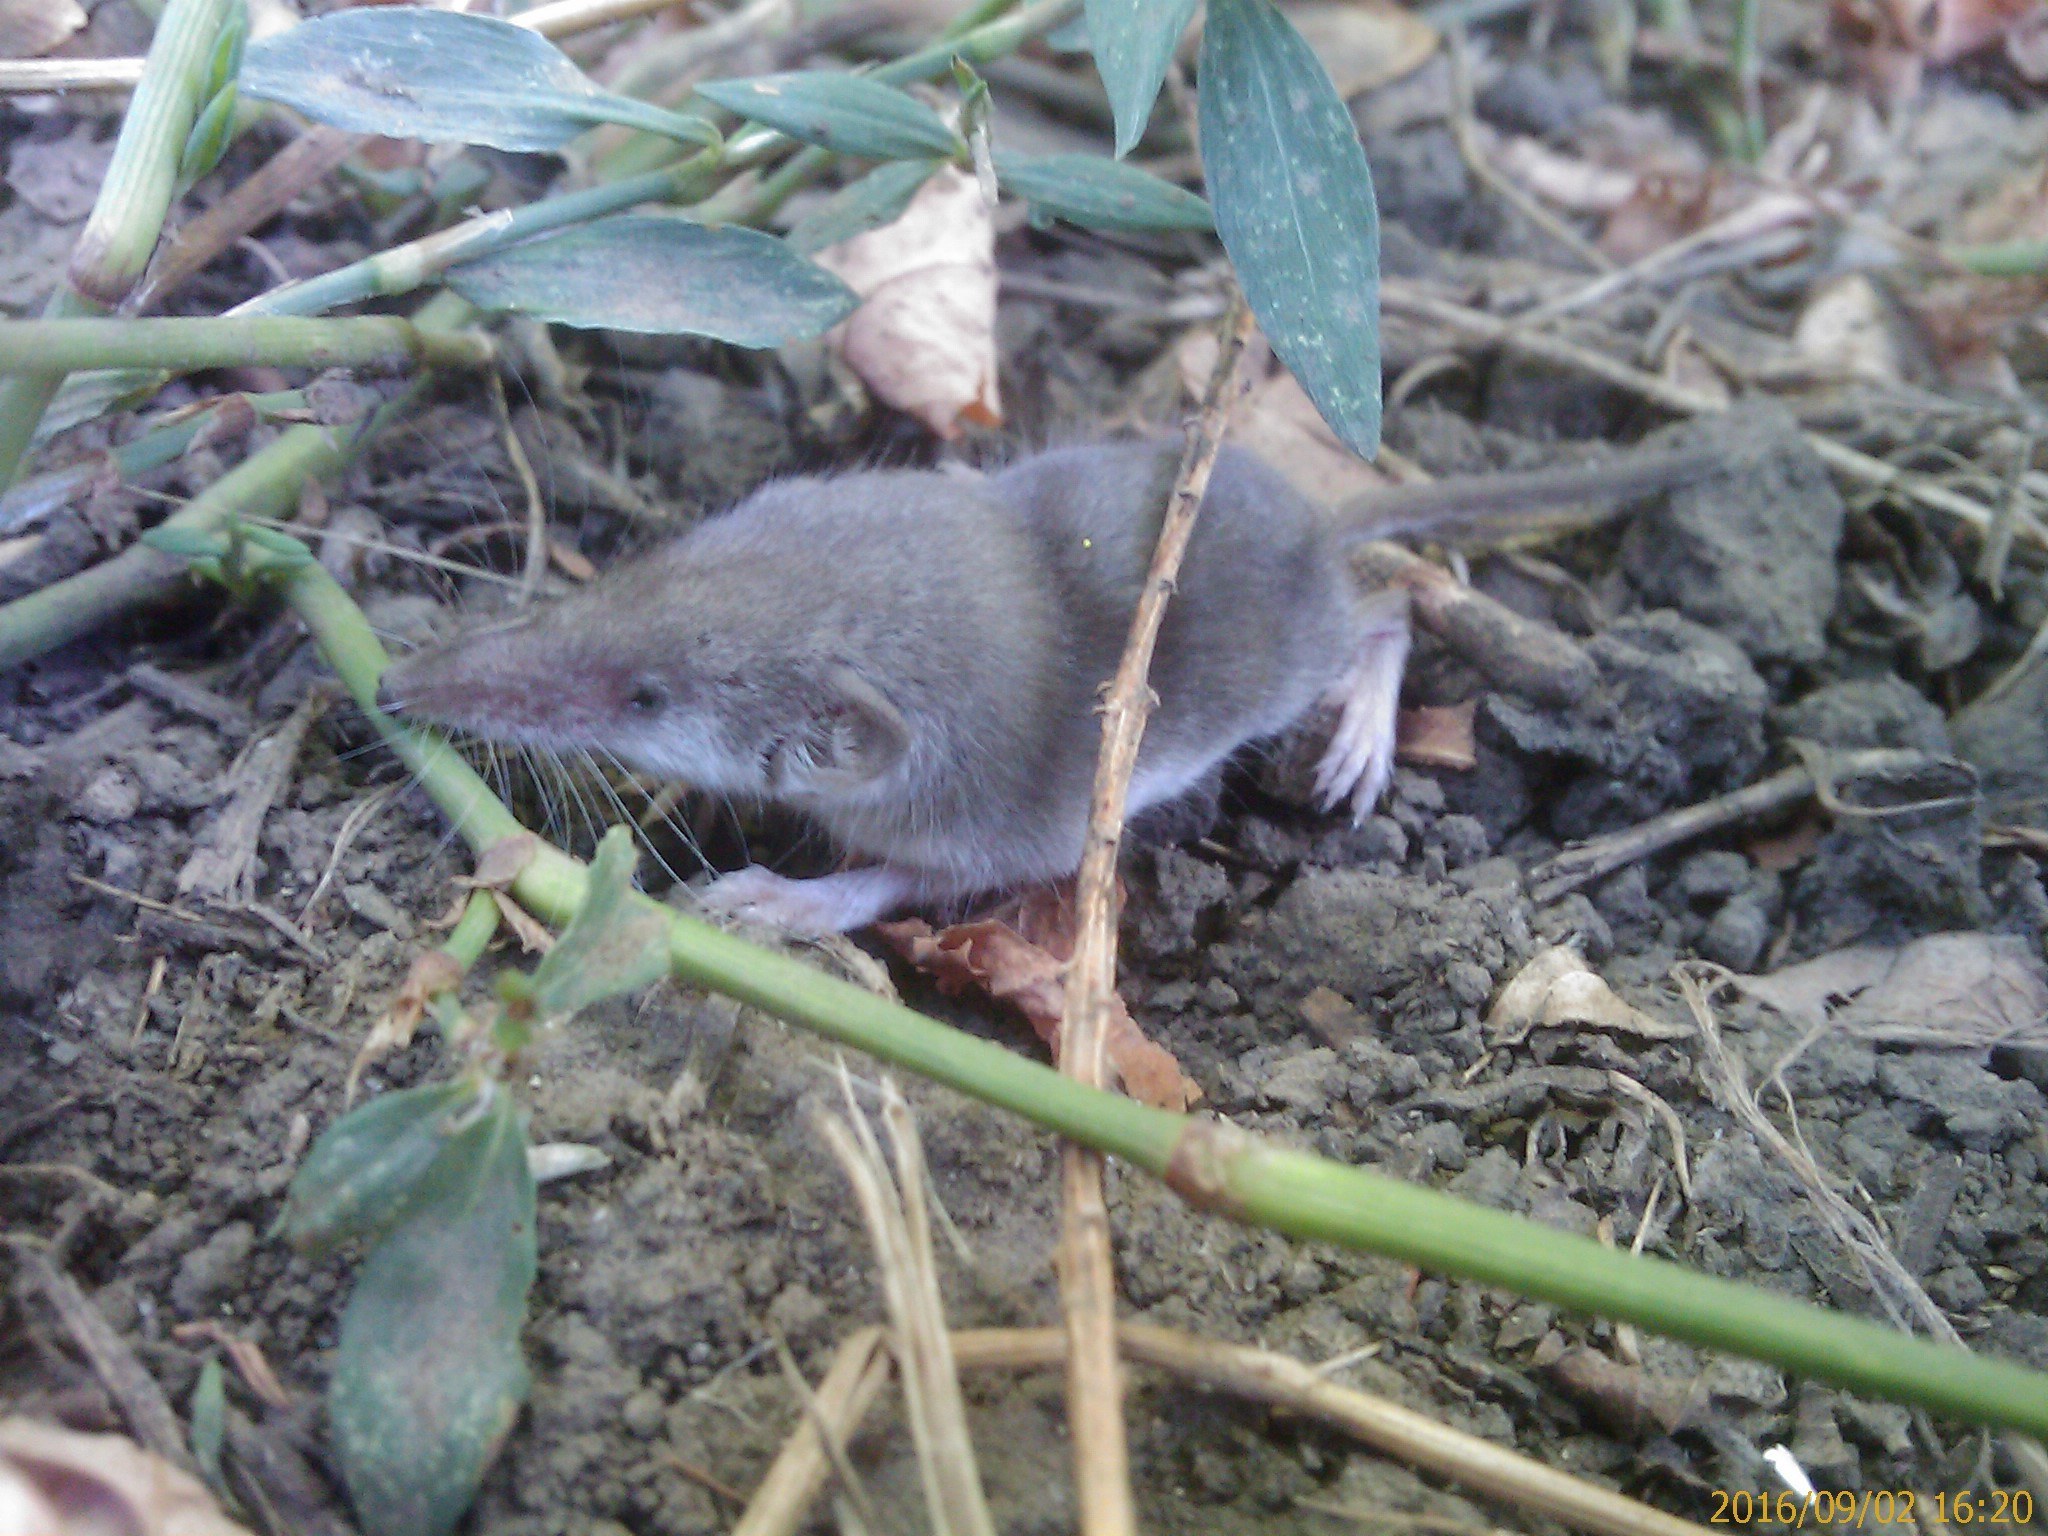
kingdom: Animalia
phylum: Chordata
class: Mammalia
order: Soricomorpha
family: Soricidae
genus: Crocidura
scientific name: Crocidura suaveolens
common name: Lesser white-toothed shrew
